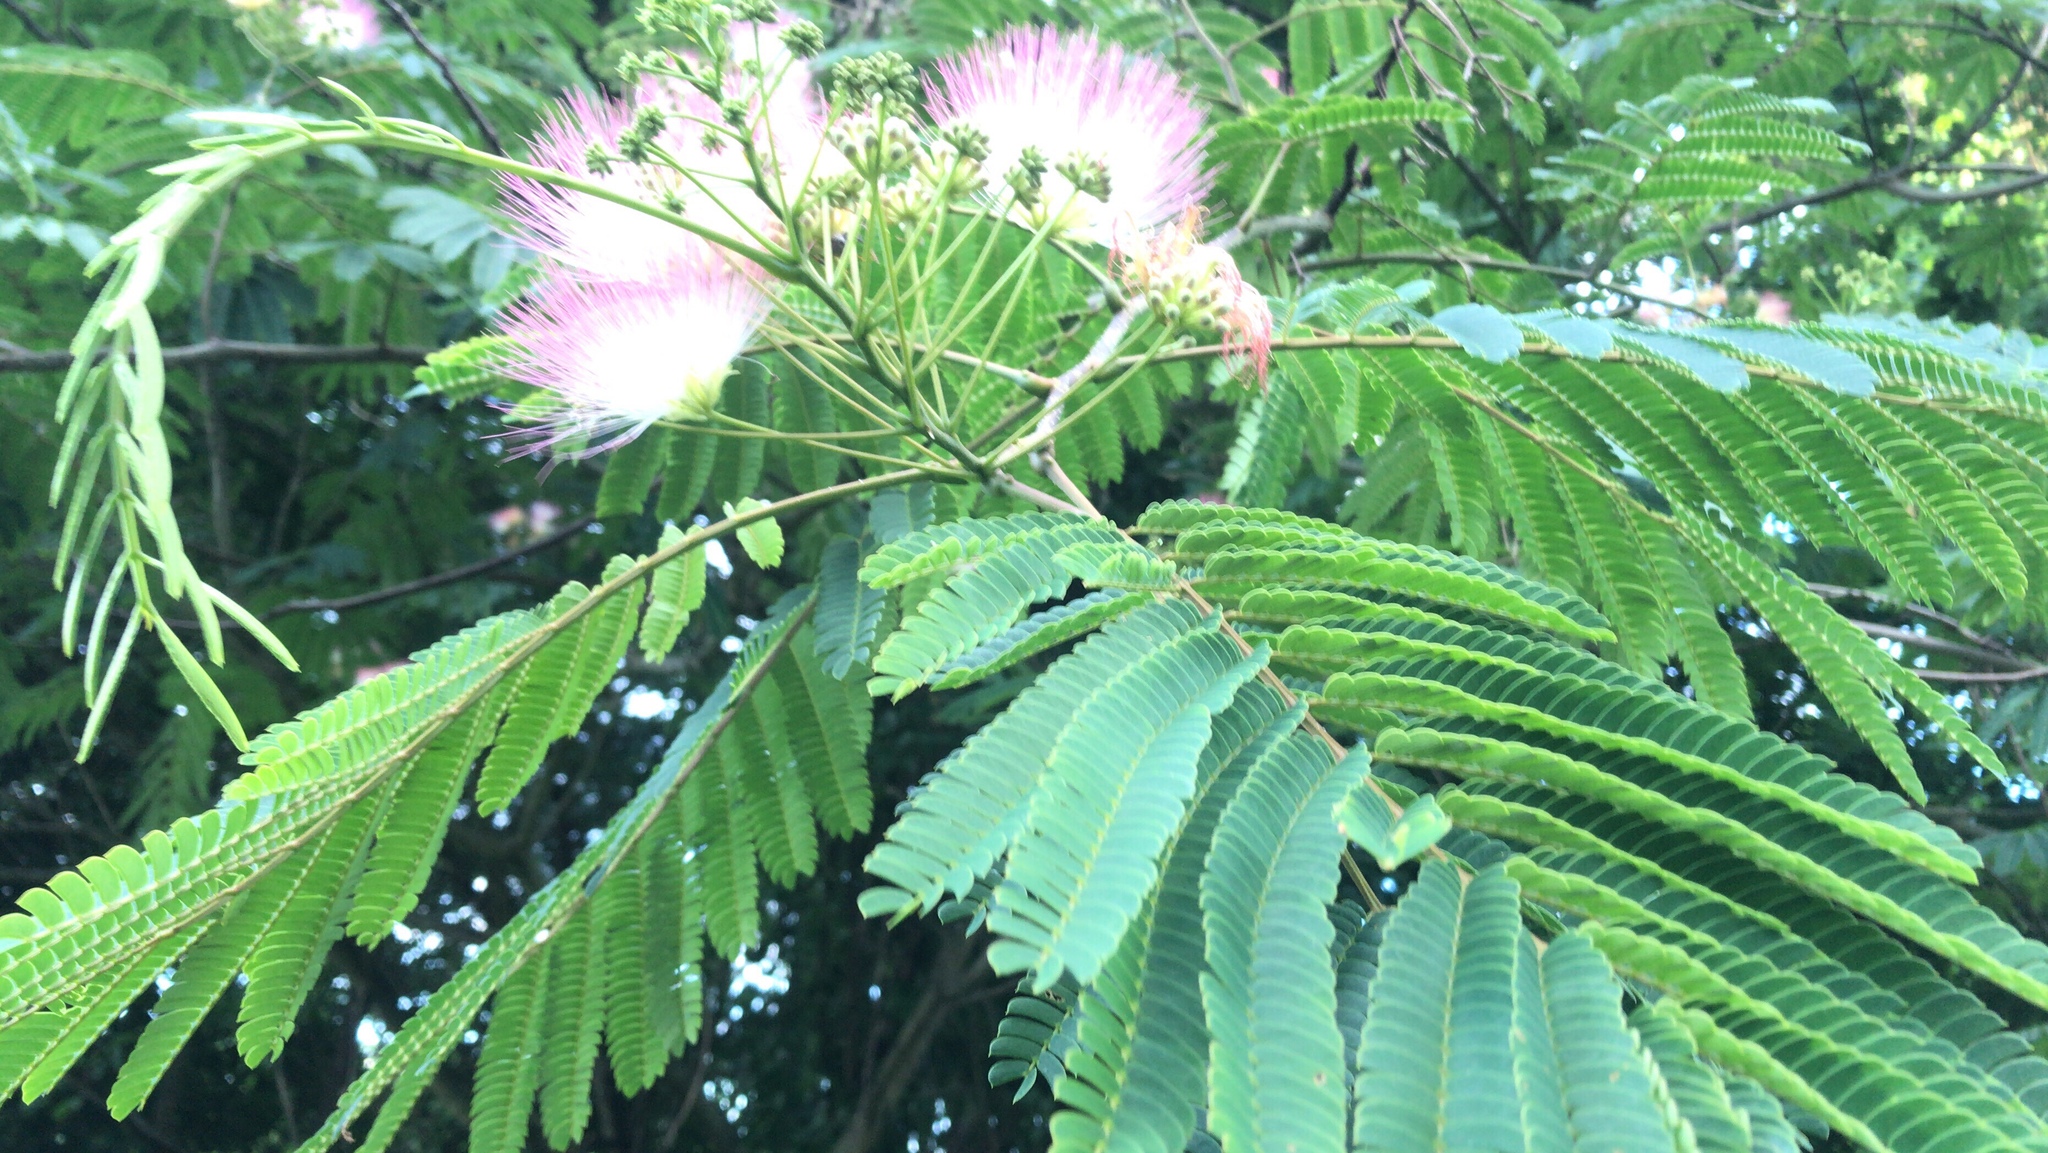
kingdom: Plantae
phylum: Tracheophyta
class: Magnoliopsida
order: Fabales
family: Fabaceae
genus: Albizia
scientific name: Albizia julibrissin
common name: Silktree
